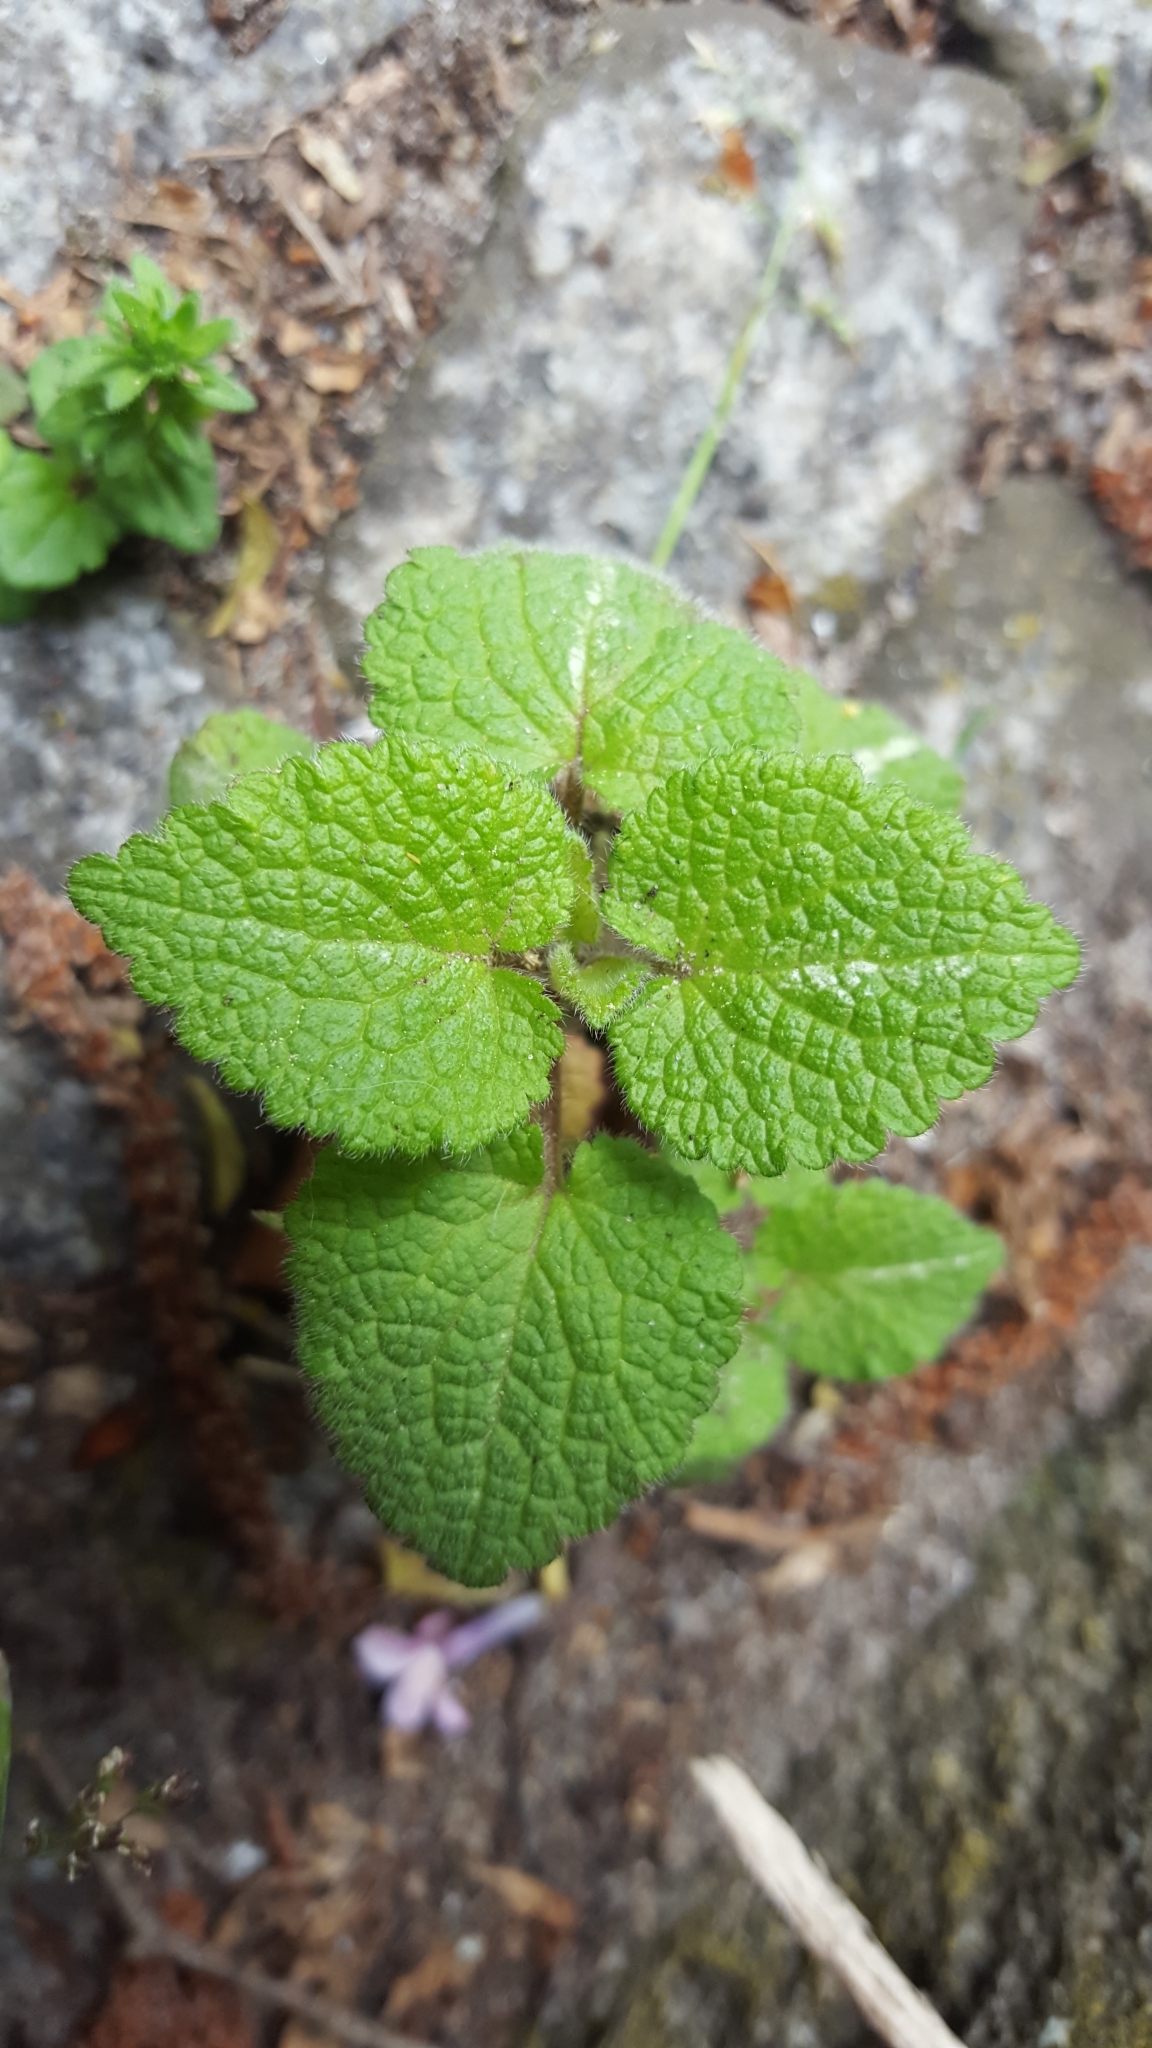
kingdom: Plantae
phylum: Tracheophyta
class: Magnoliopsida
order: Lamiales
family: Lamiaceae
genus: Lamium
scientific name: Lamium maculatum
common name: Spotted dead-nettle
